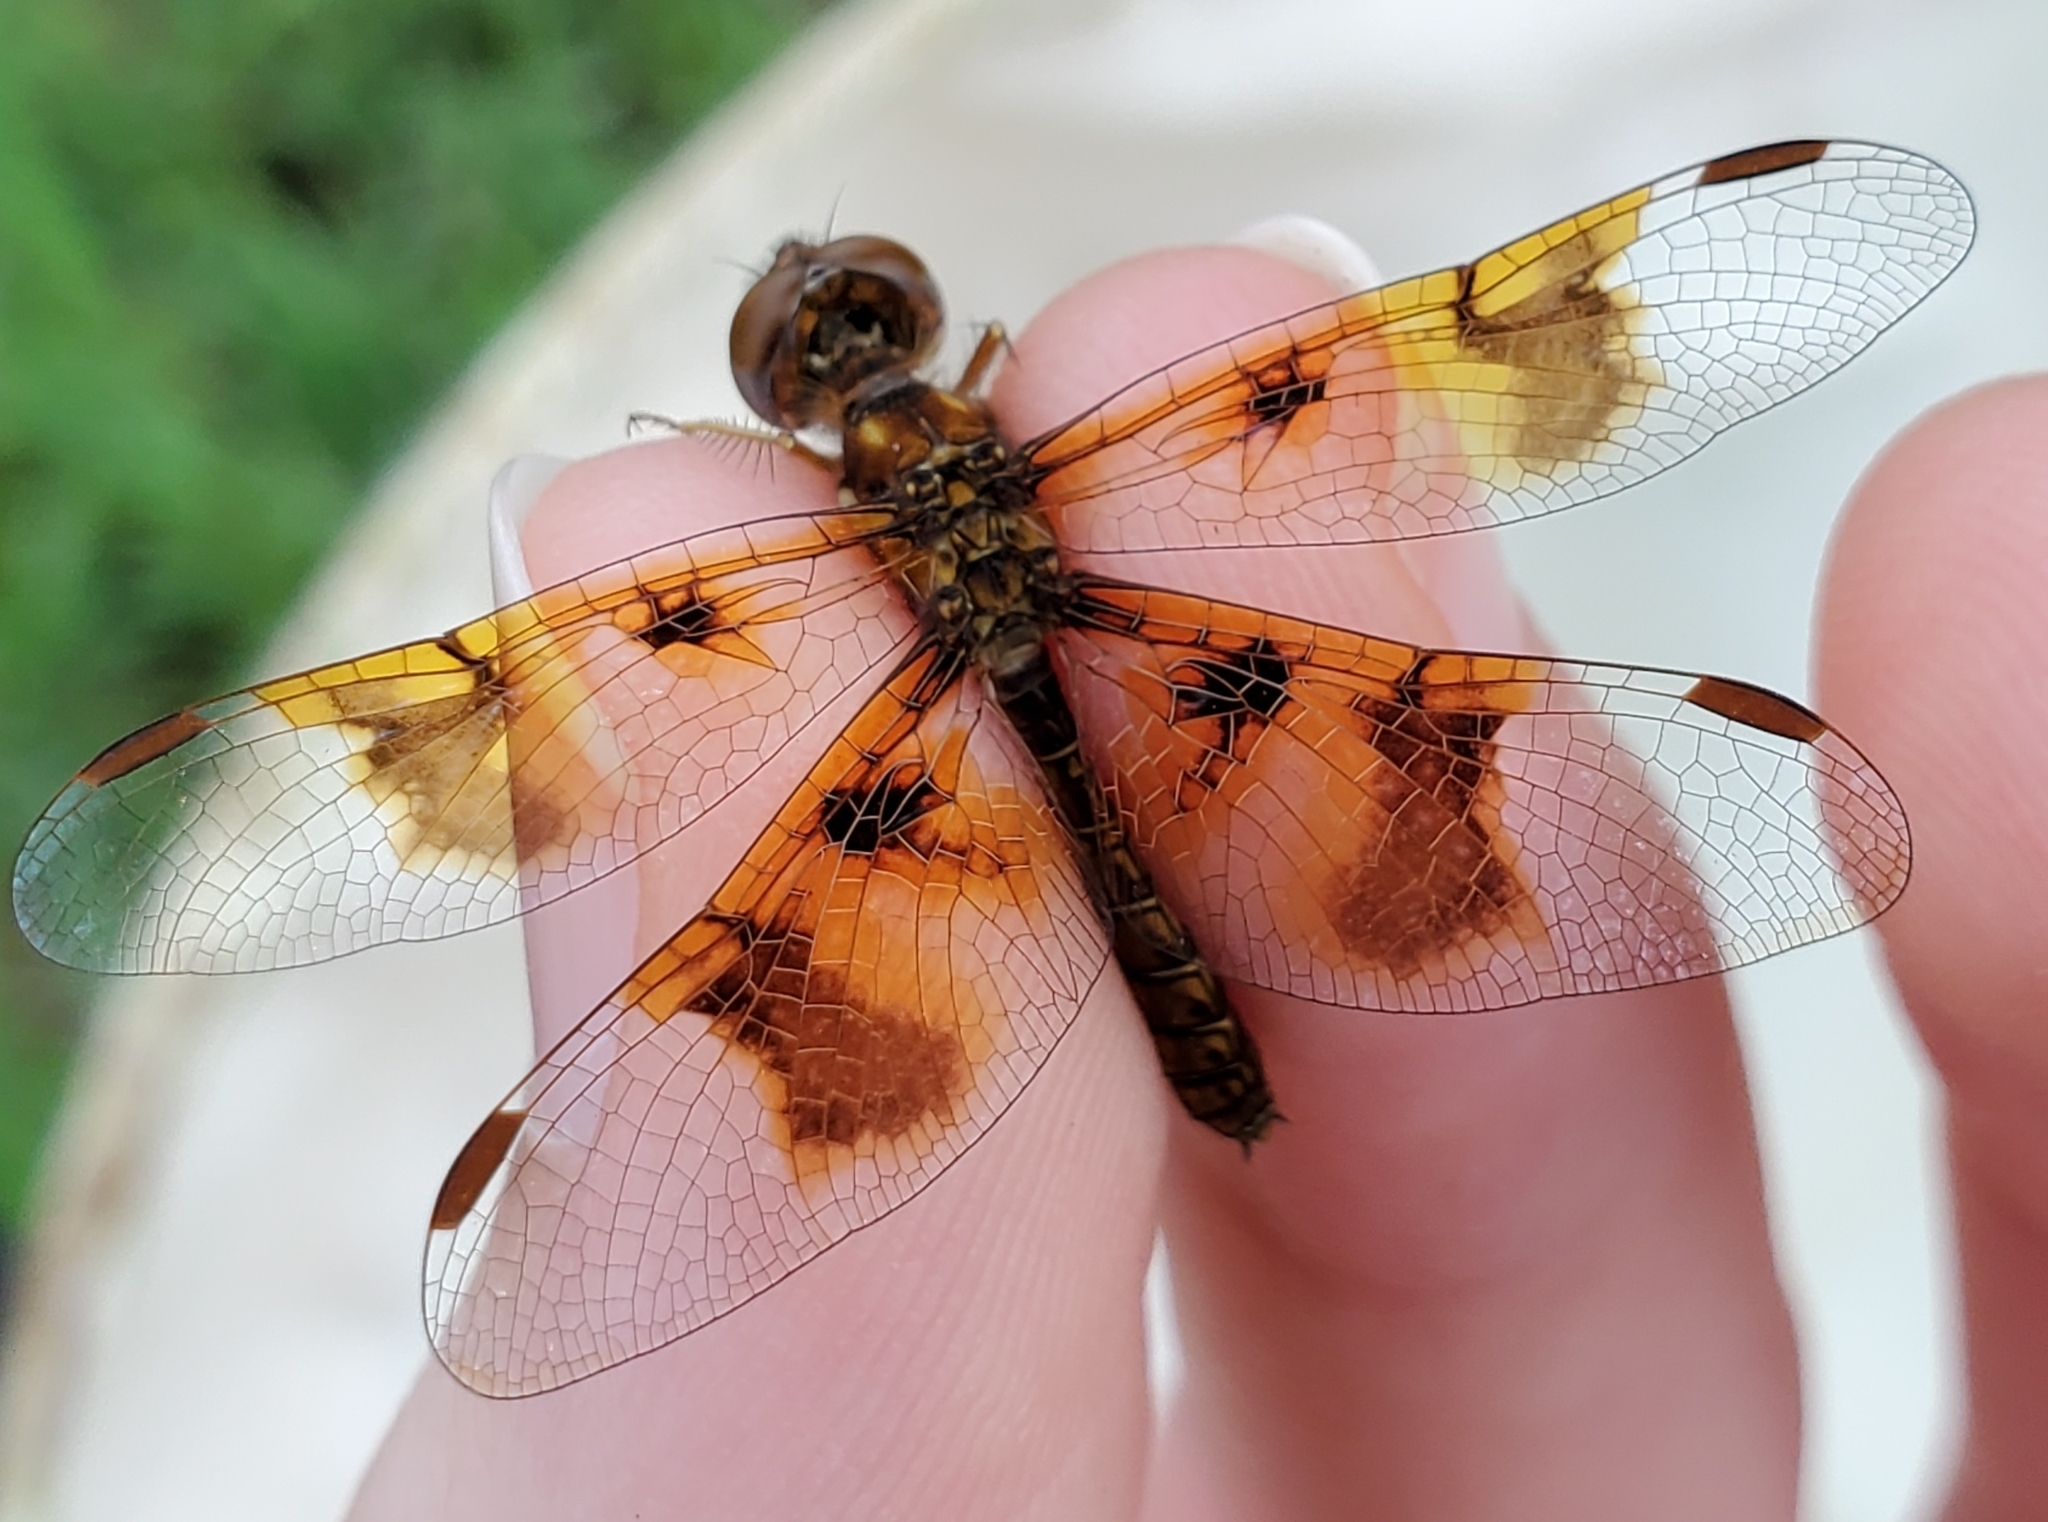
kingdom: Animalia
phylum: Arthropoda
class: Insecta
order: Odonata
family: Libellulidae
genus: Perithemis
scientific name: Perithemis tenera
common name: Eastern amberwing
